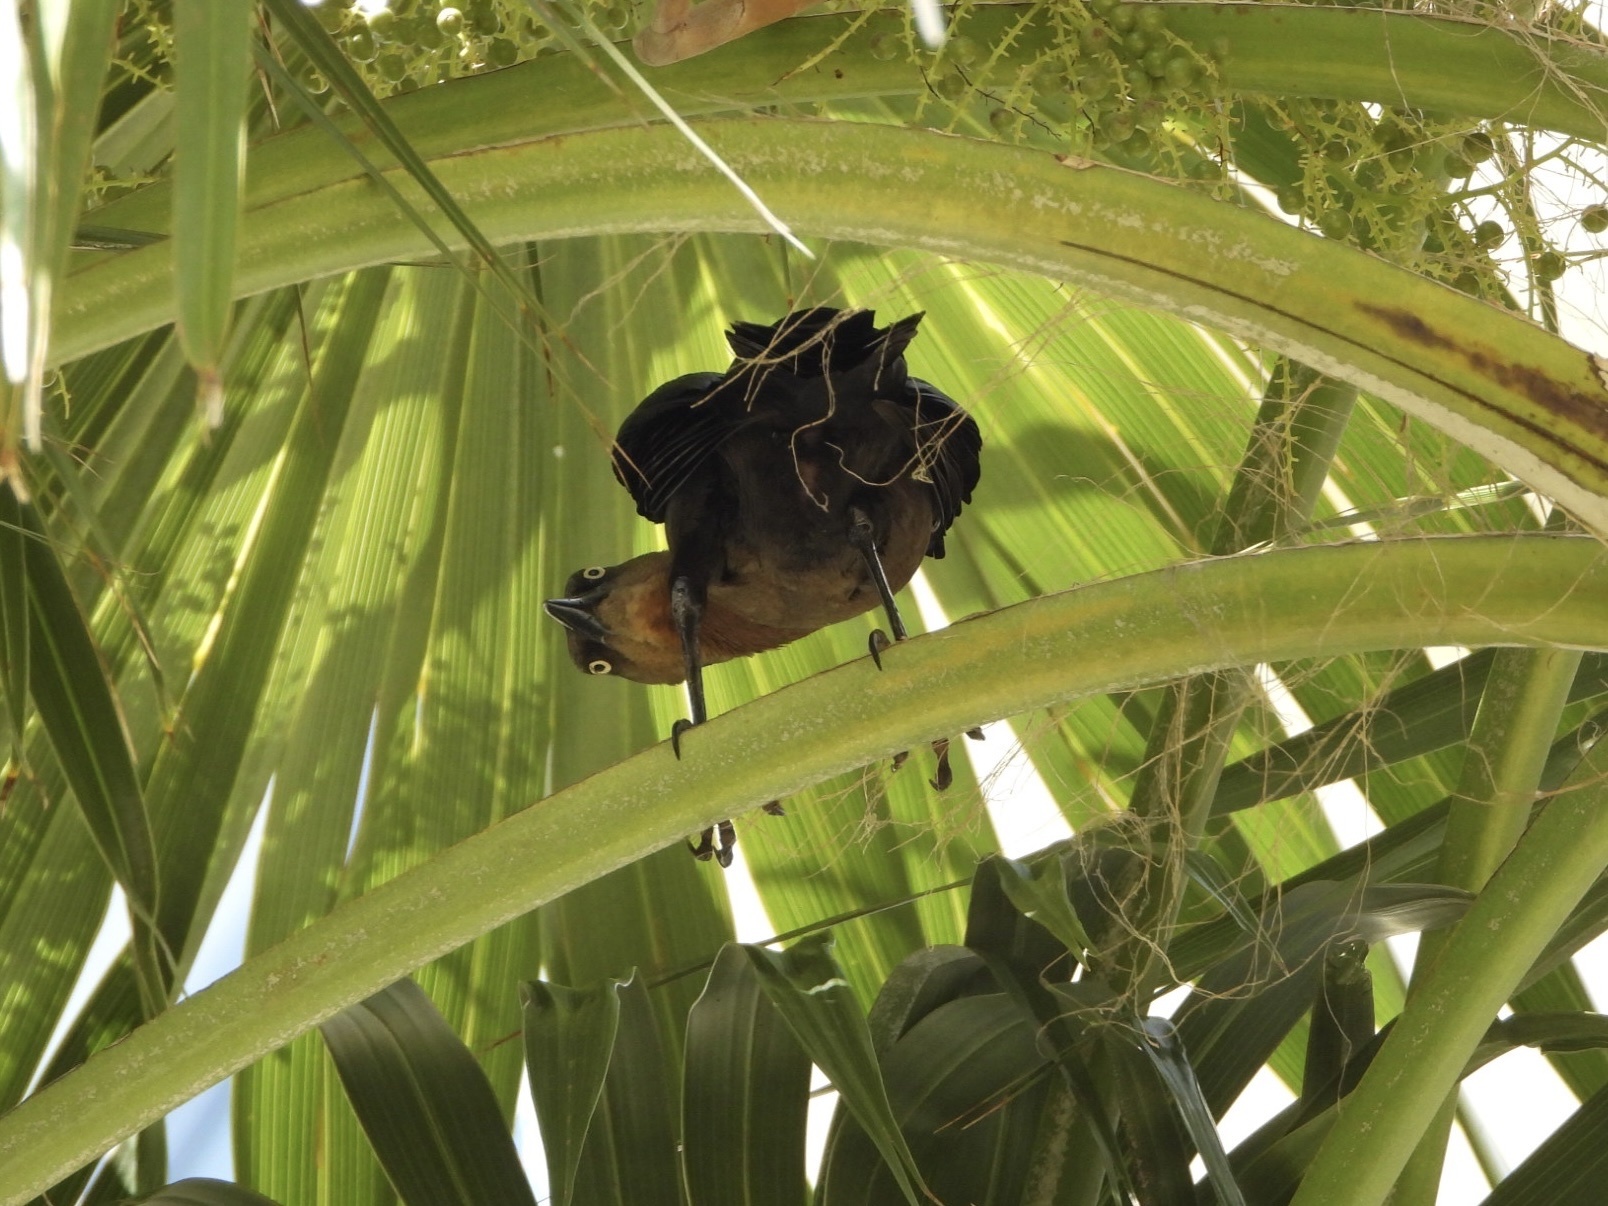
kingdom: Animalia
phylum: Chordata
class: Aves
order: Passeriformes
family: Icteridae
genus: Quiscalus
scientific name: Quiscalus mexicanus
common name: Great-tailed grackle
